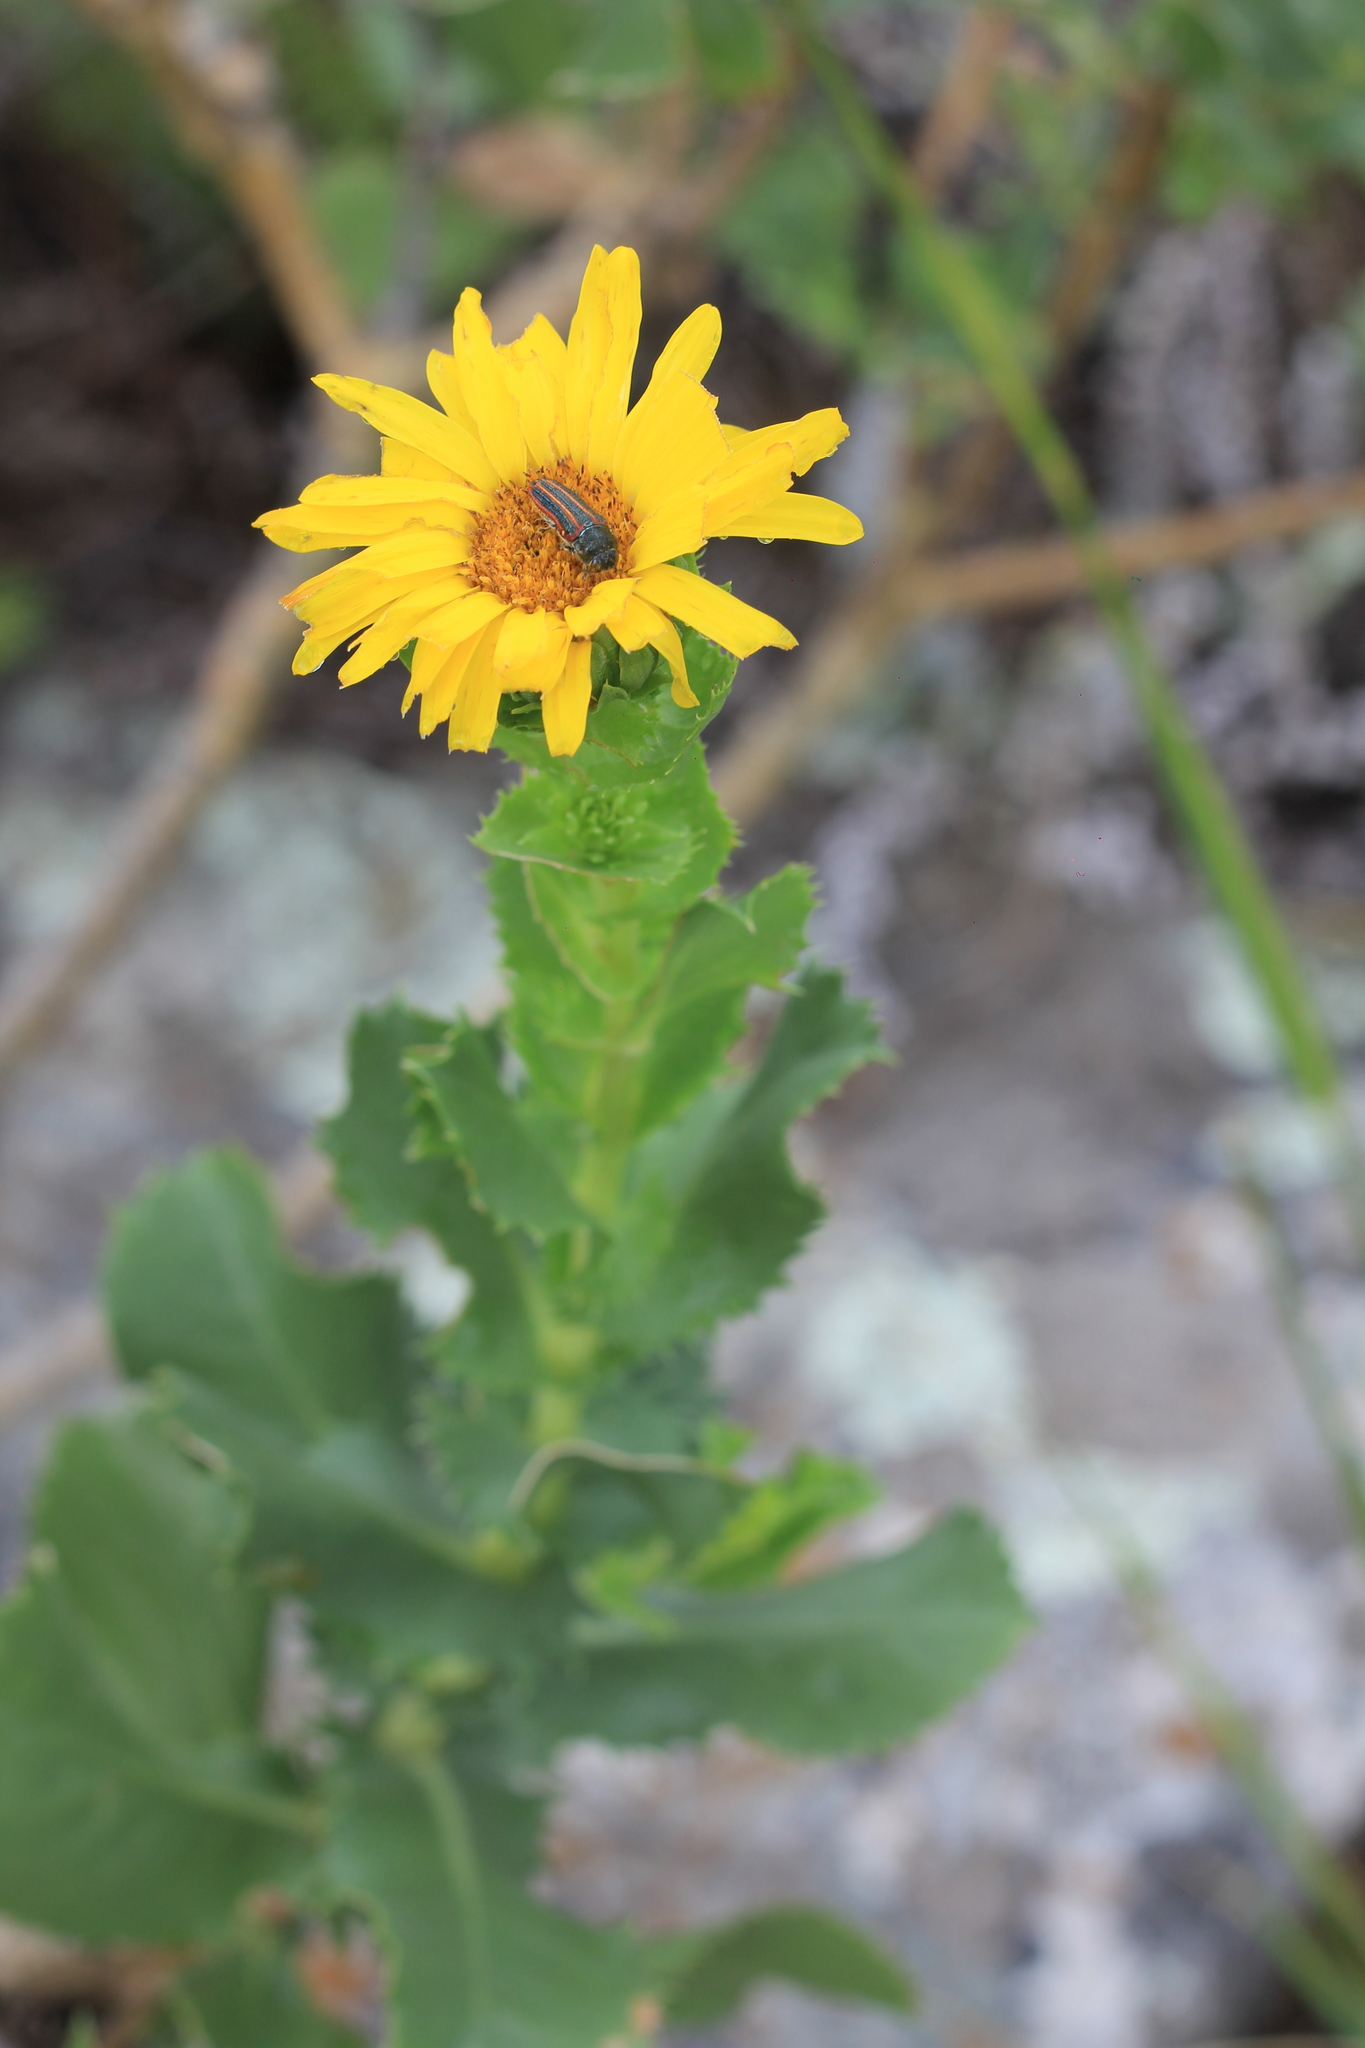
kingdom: Plantae
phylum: Tracheophyta
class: Magnoliopsida
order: Asterales
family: Asteraceae
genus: Grindelia
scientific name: Grindelia buphthalmoides
